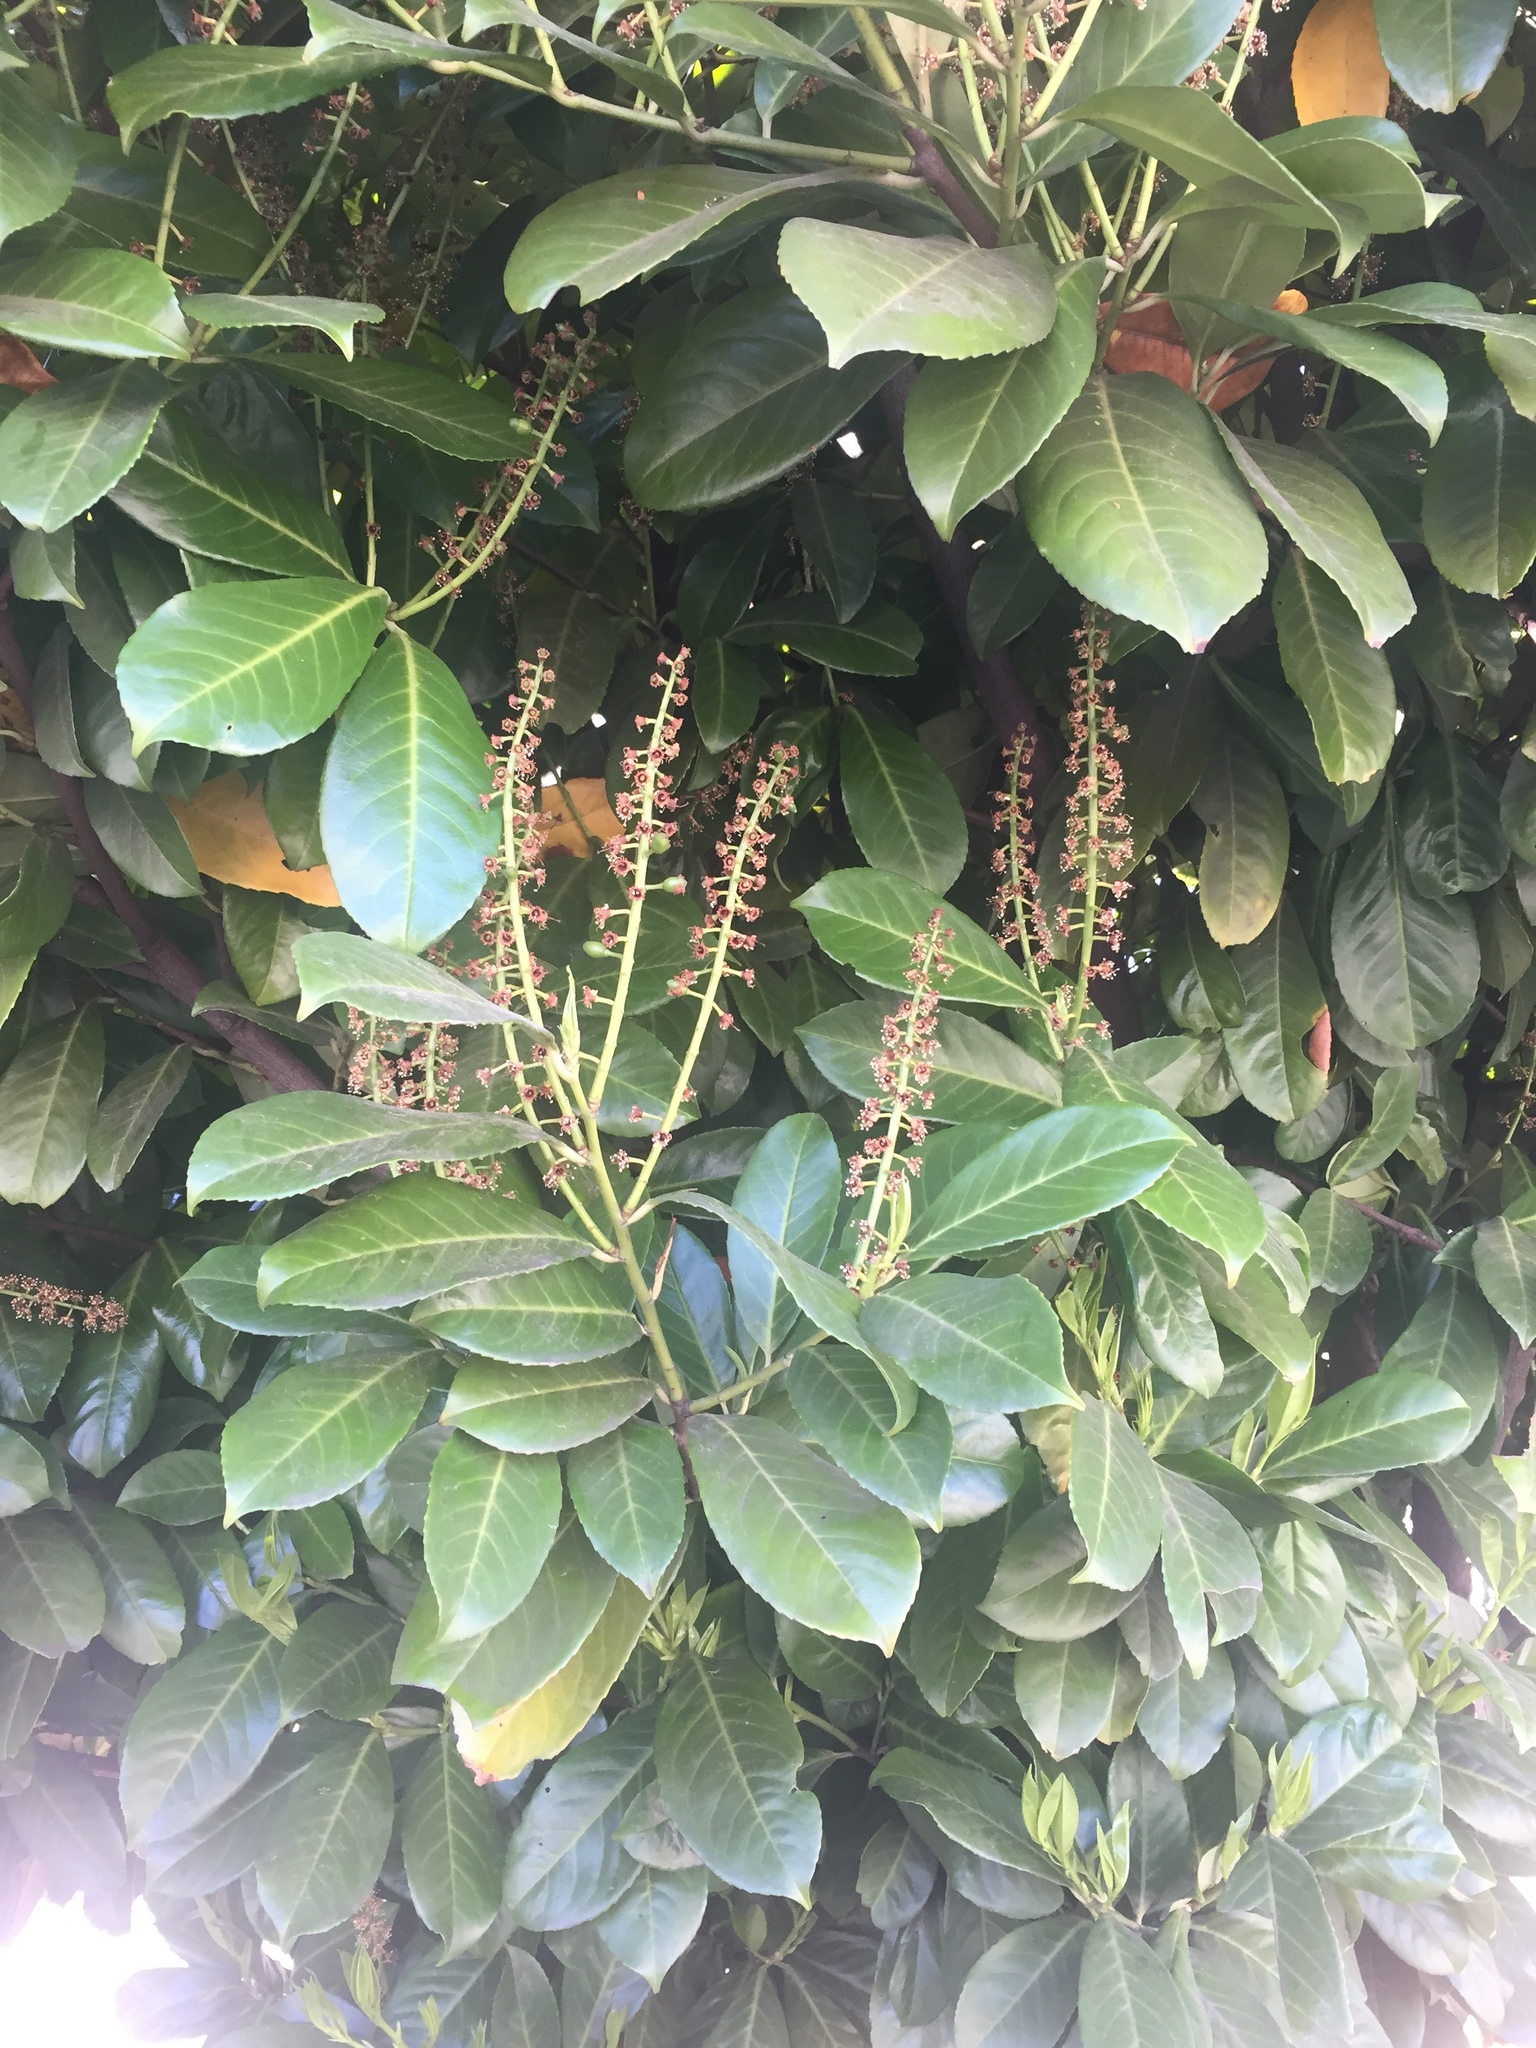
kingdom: Plantae
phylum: Tracheophyta
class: Magnoliopsida
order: Rosales
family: Rosaceae
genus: Prunus
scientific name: Prunus laurocerasus
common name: Cherry laurel
